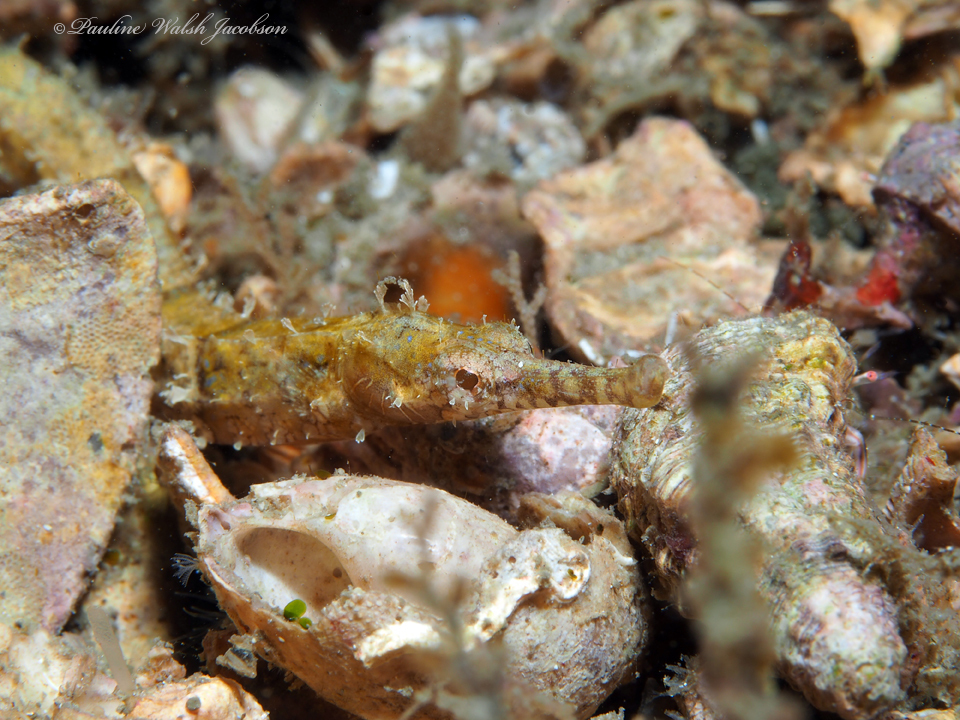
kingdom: Animalia
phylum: Chordata
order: Syngnathiformes
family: Syngnathidae
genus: Cosmocampus
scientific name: Cosmocampus elucens
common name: Poey's pipefish
